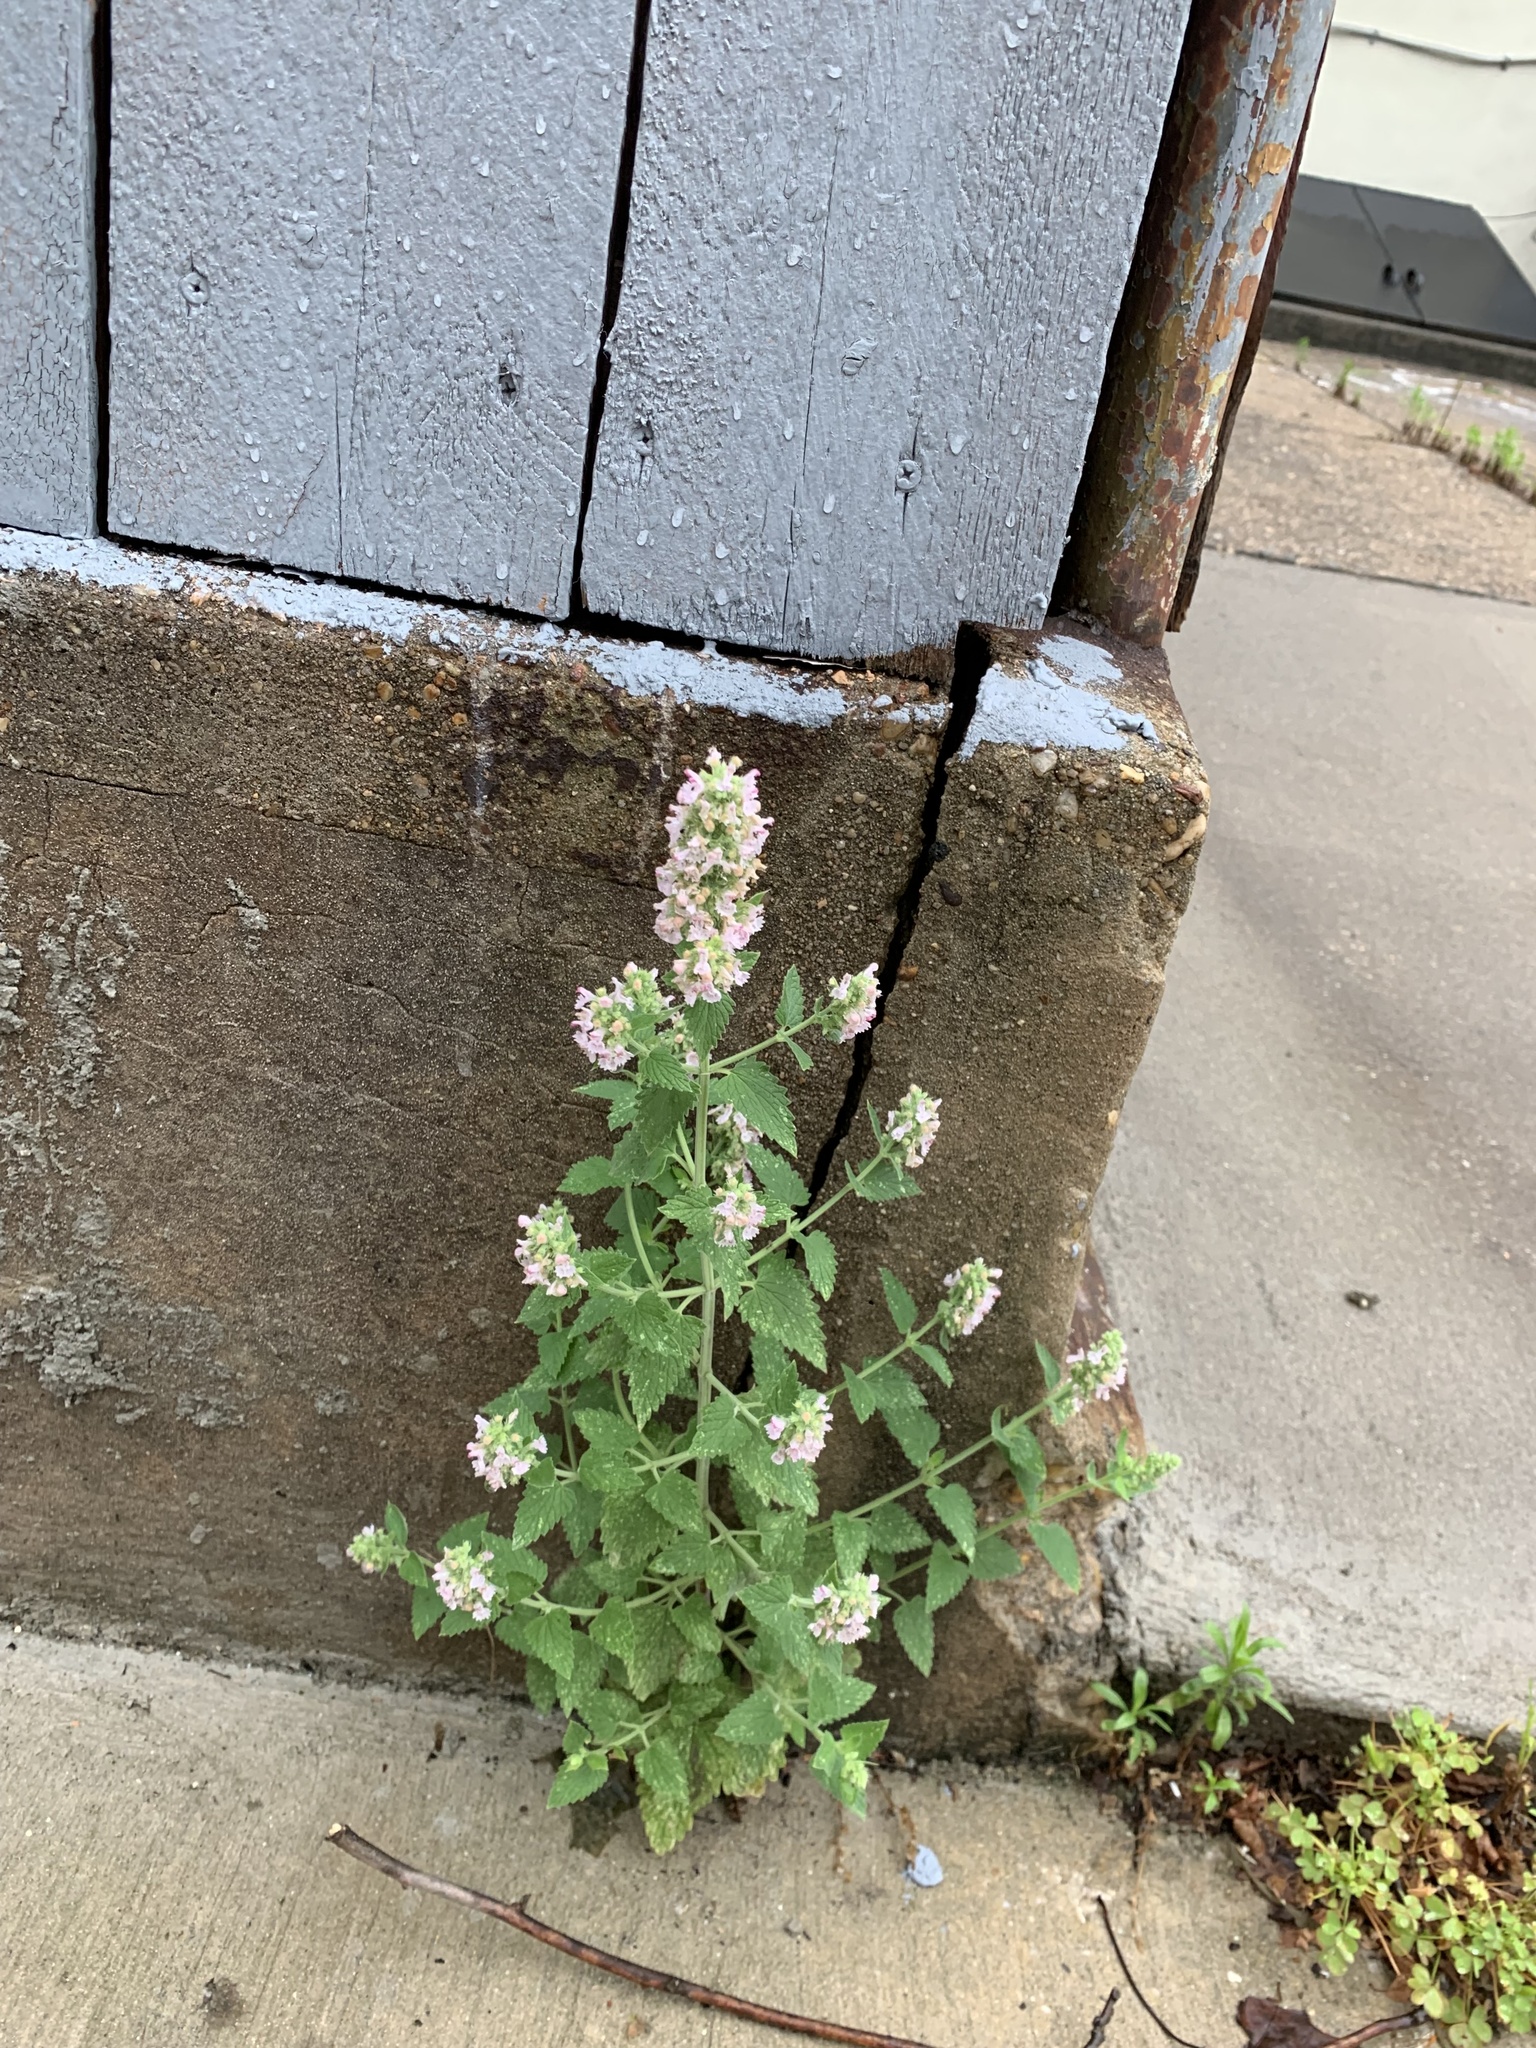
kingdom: Plantae
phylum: Tracheophyta
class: Magnoliopsida
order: Lamiales
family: Lamiaceae
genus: Nepeta
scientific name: Nepeta cataria
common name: Catnip
